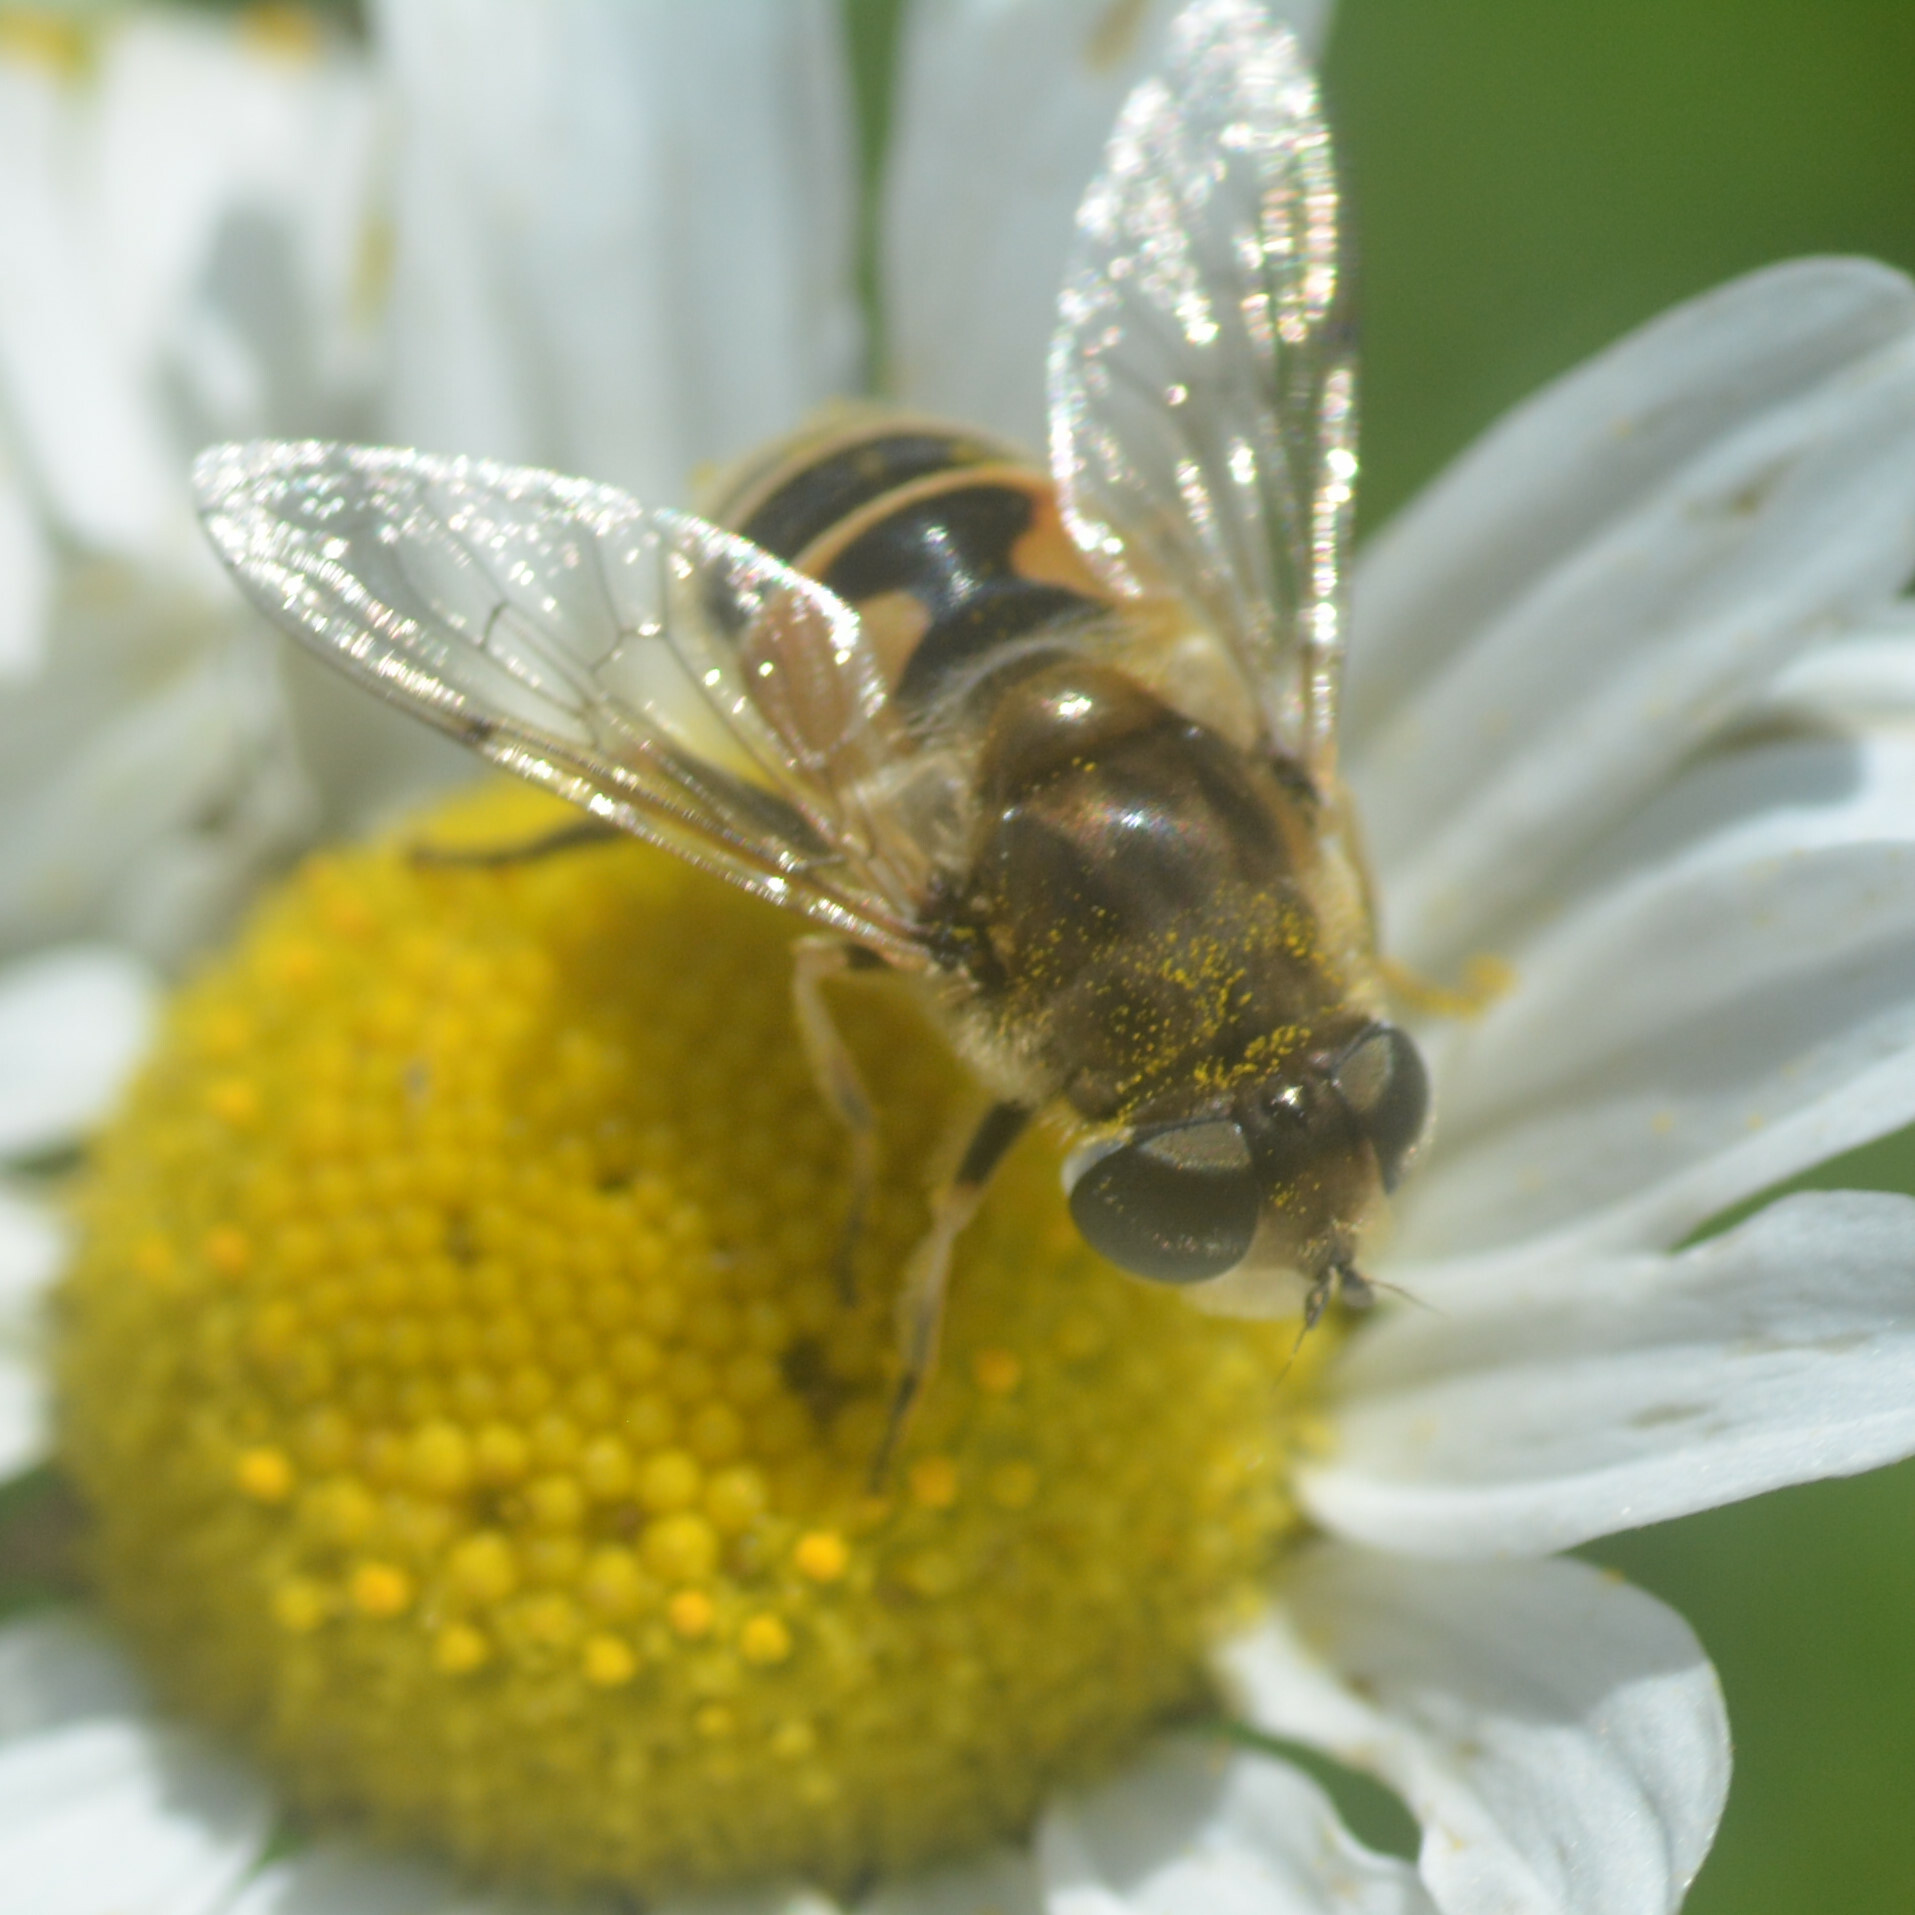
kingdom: Animalia
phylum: Arthropoda
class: Insecta
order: Diptera
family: Syrphidae
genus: Eristalis
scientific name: Eristalis arbustorum
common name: Hover fly
